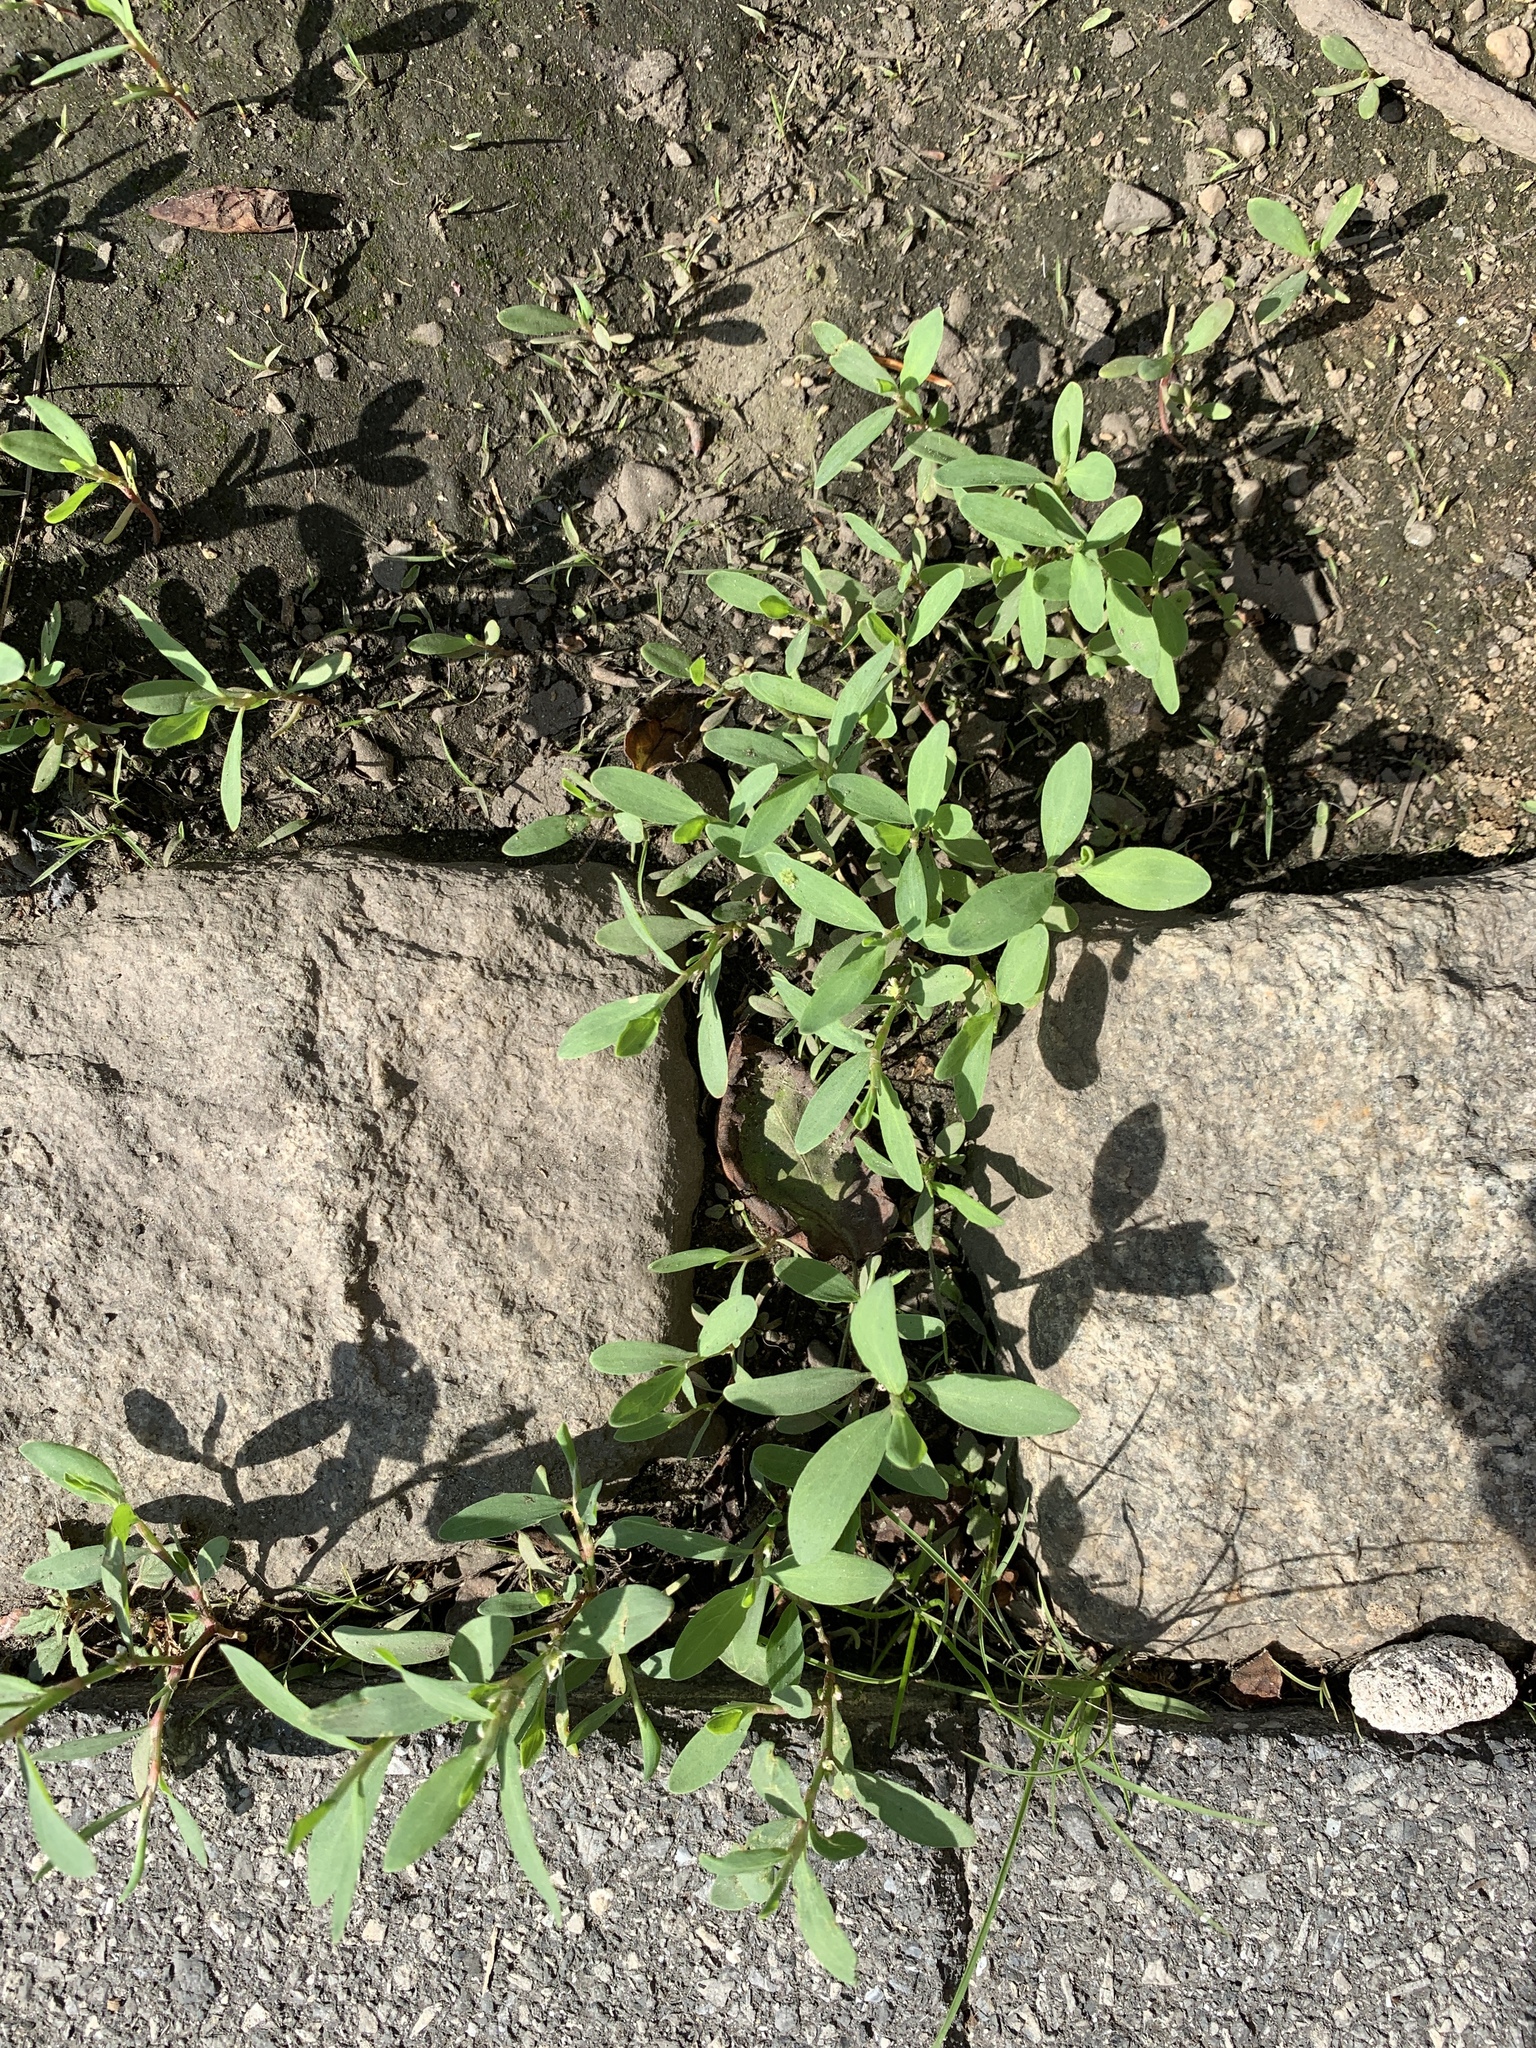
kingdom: Plantae
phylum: Tracheophyta
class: Magnoliopsida
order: Caryophyllales
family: Polygonaceae
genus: Polygonum
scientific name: Polygonum aviculare
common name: Prostrate knotweed
